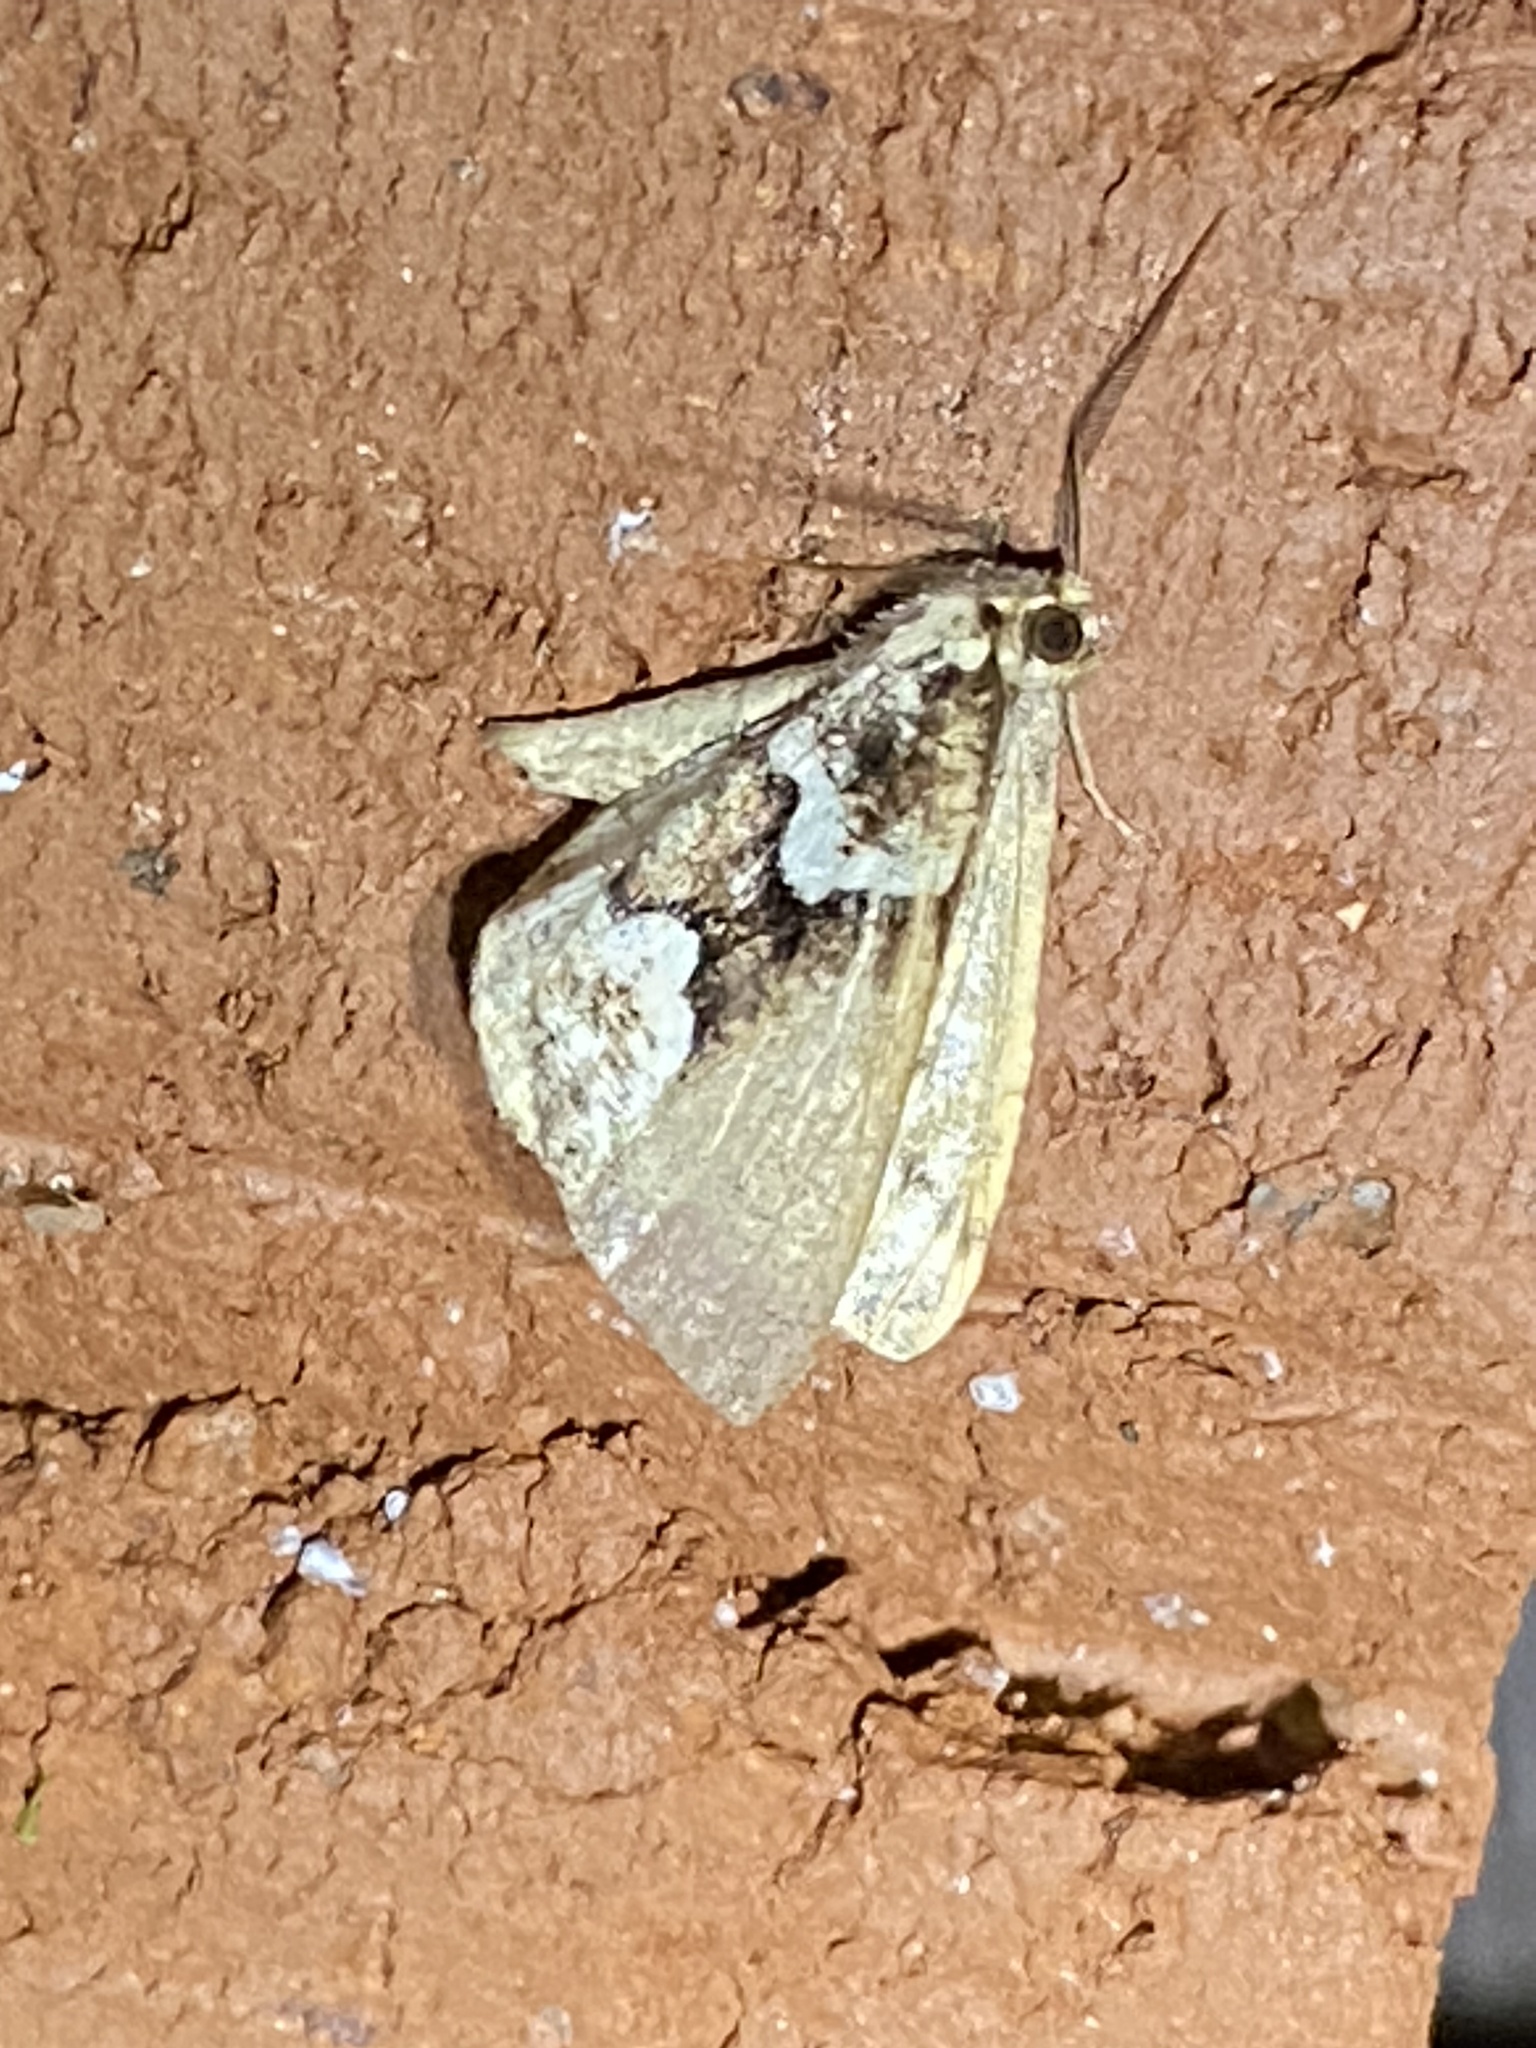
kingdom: Animalia
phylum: Arthropoda
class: Insecta
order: Lepidoptera
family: Geometridae
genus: Caripeta
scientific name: Caripeta divisata
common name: Gray spruce looper
